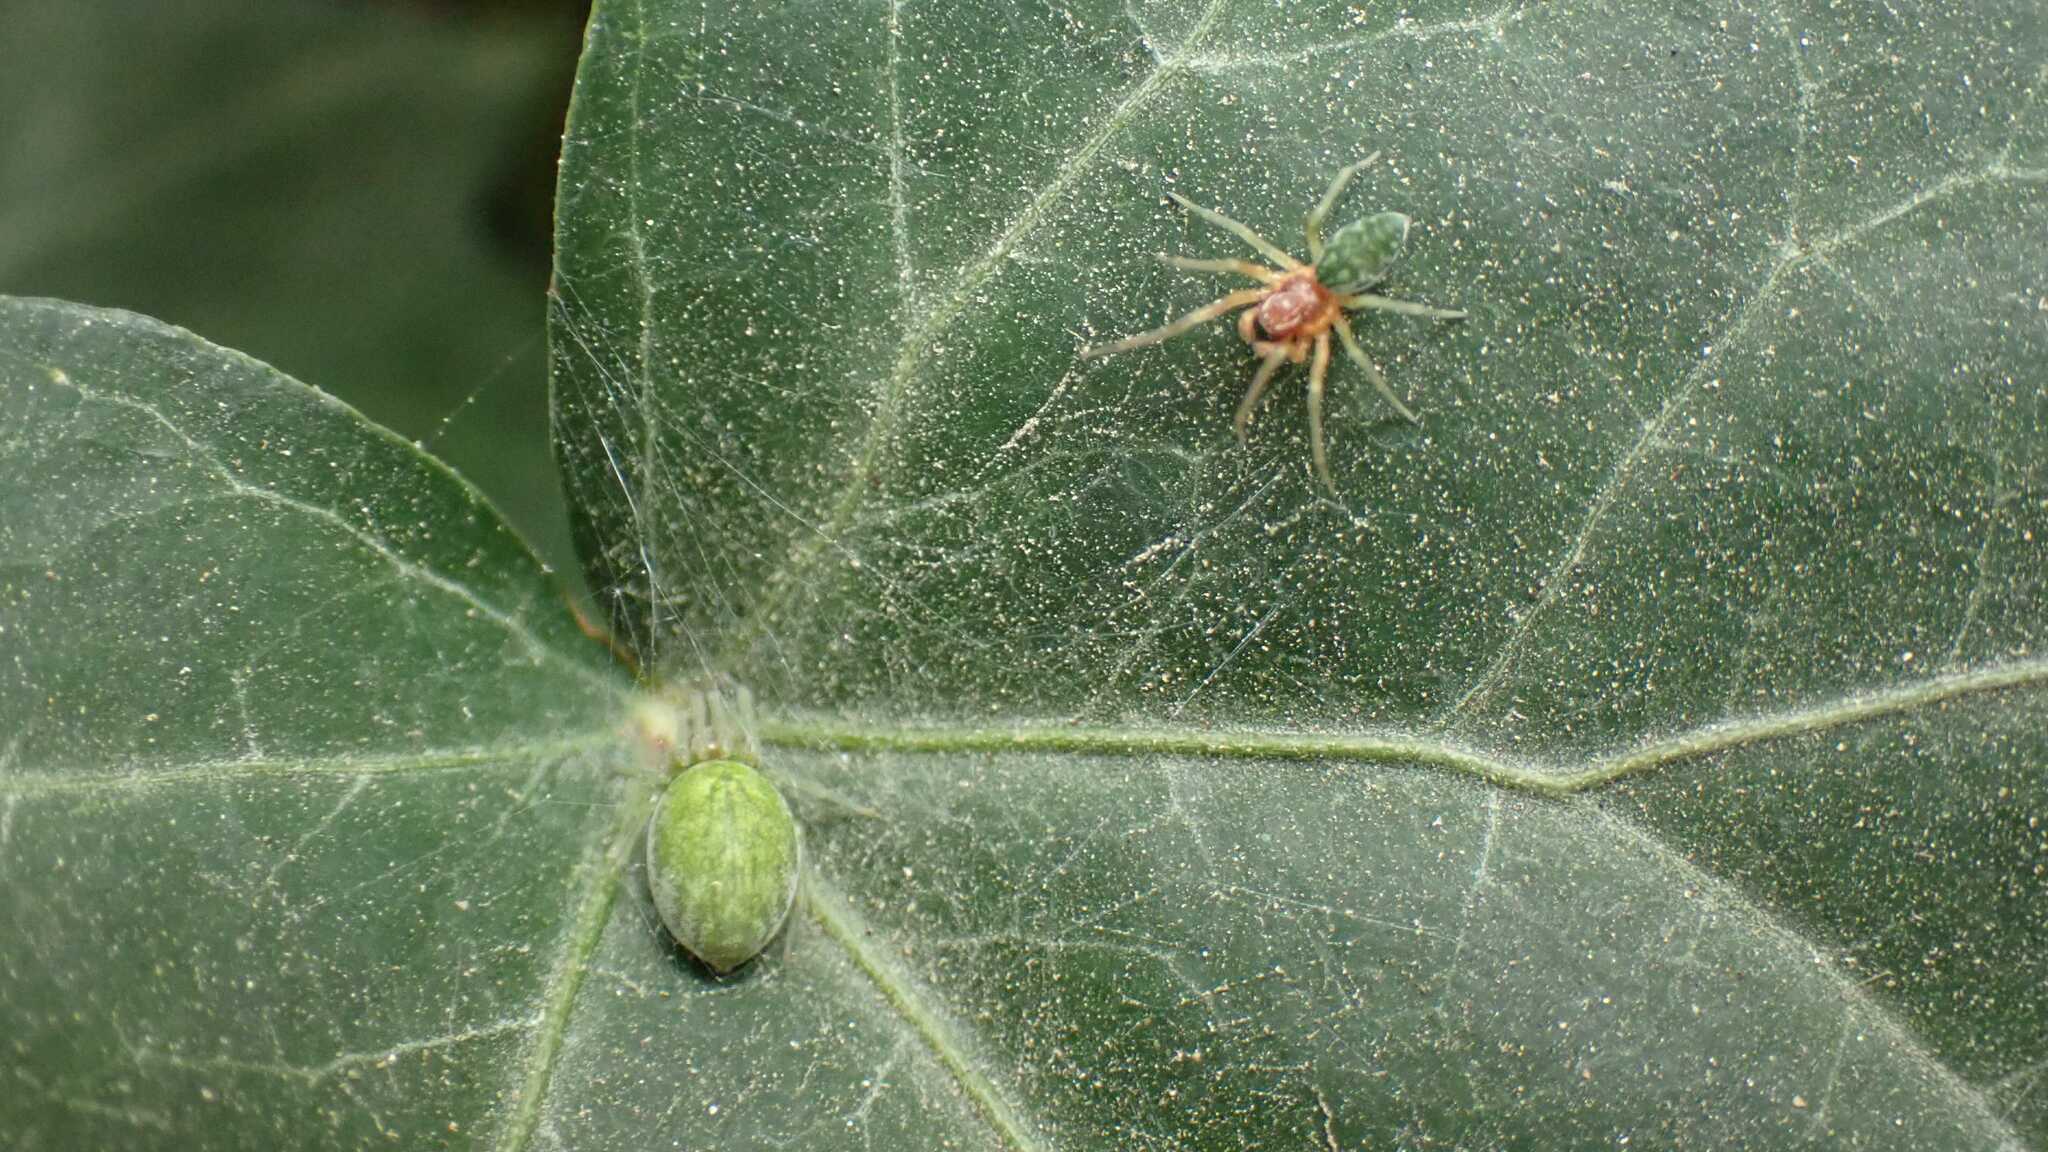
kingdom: Animalia
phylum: Arthropoda
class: Arachnida
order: Araneae
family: Dictynidae
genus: Nigma
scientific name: Nigma walckenaeri
